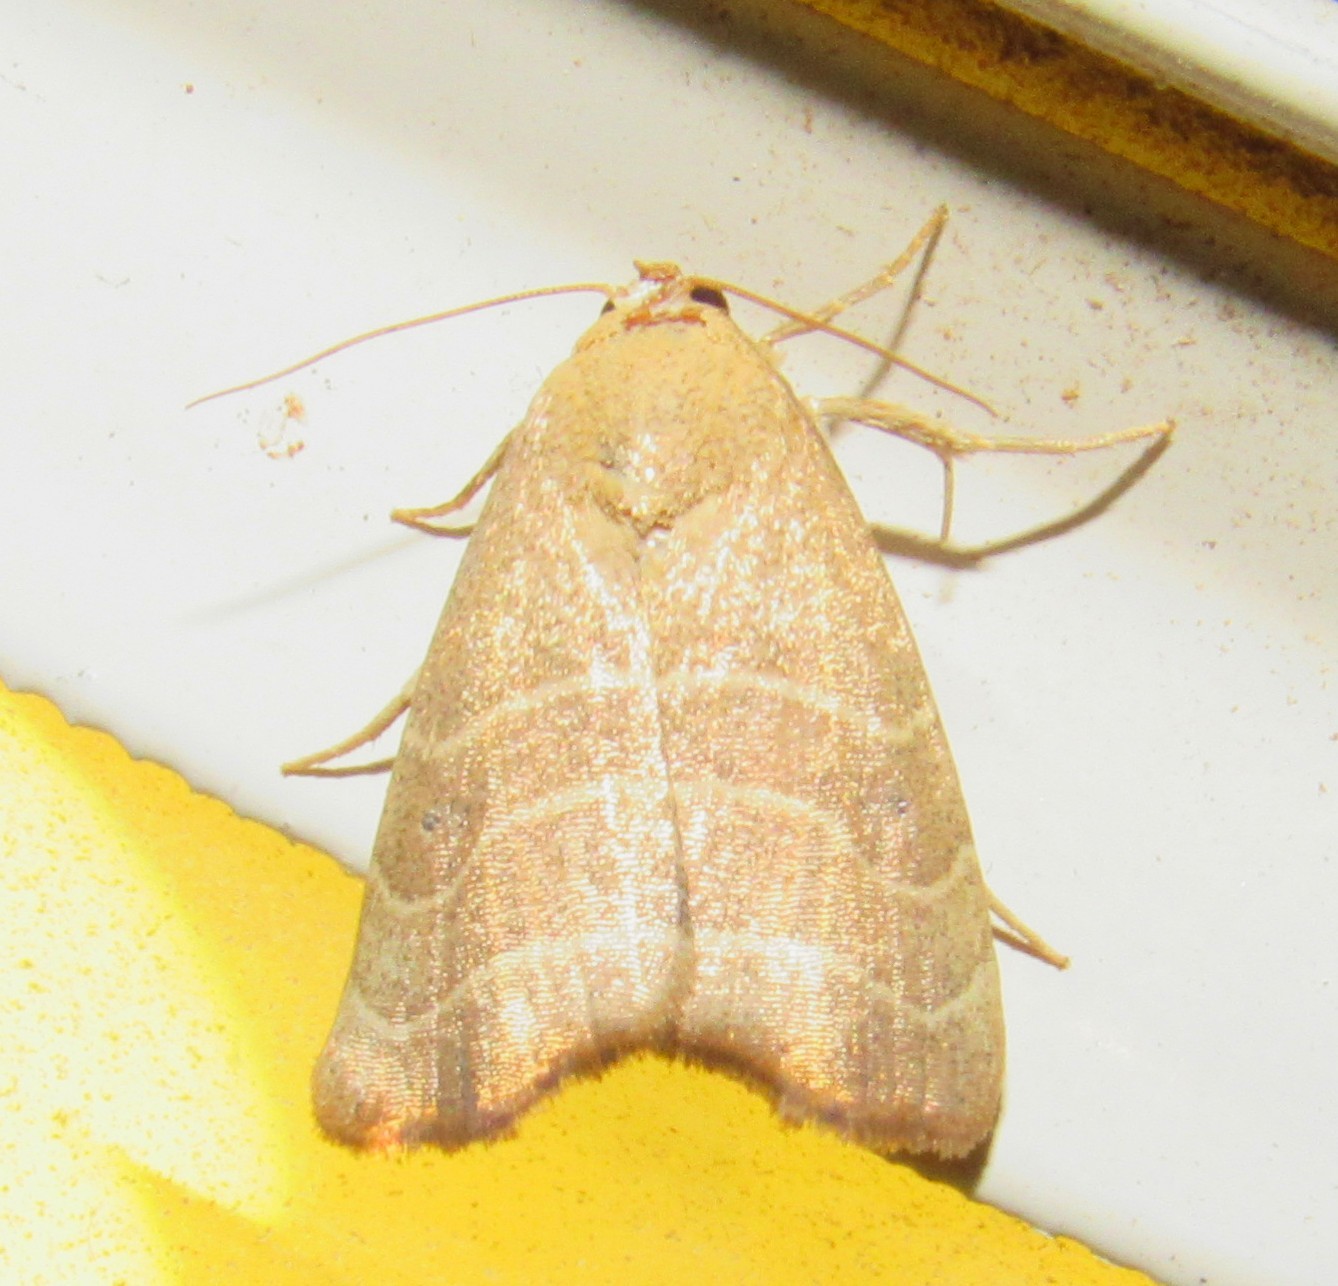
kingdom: Animalia
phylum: Arthropoda
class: Insecta
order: Lepidoptera
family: Noctuidae
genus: Bagisara
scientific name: Bagisara repanda
